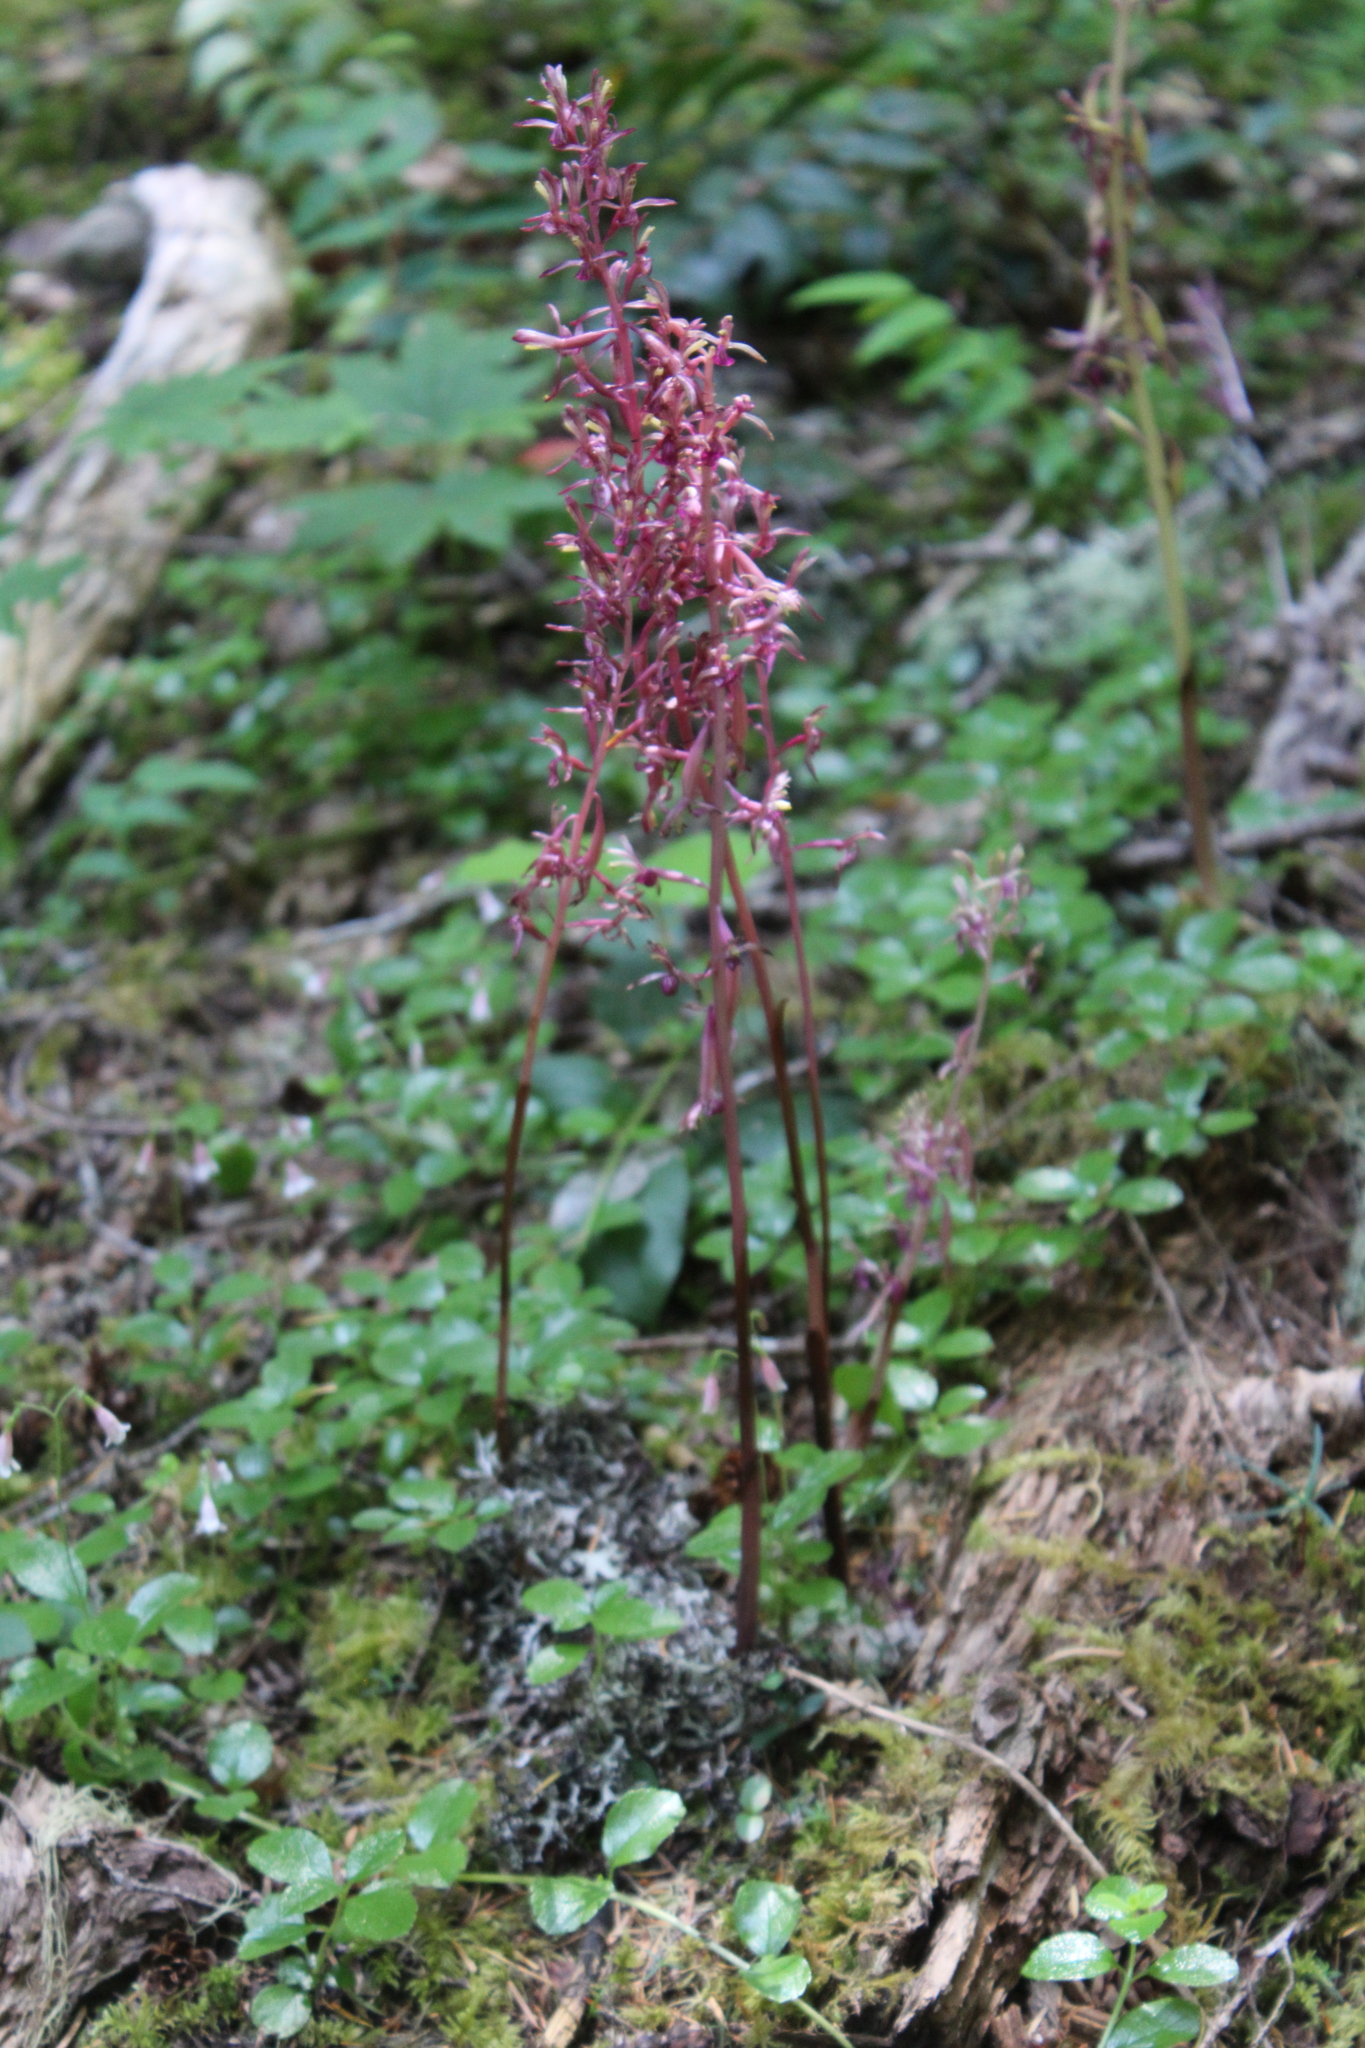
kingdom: Plantae
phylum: Tracheophyta
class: Liliopsida
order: Asparagales
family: Orchidaceae
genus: Corallorhiza
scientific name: Corallorhiza mertensiana
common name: Pacific coralroot
